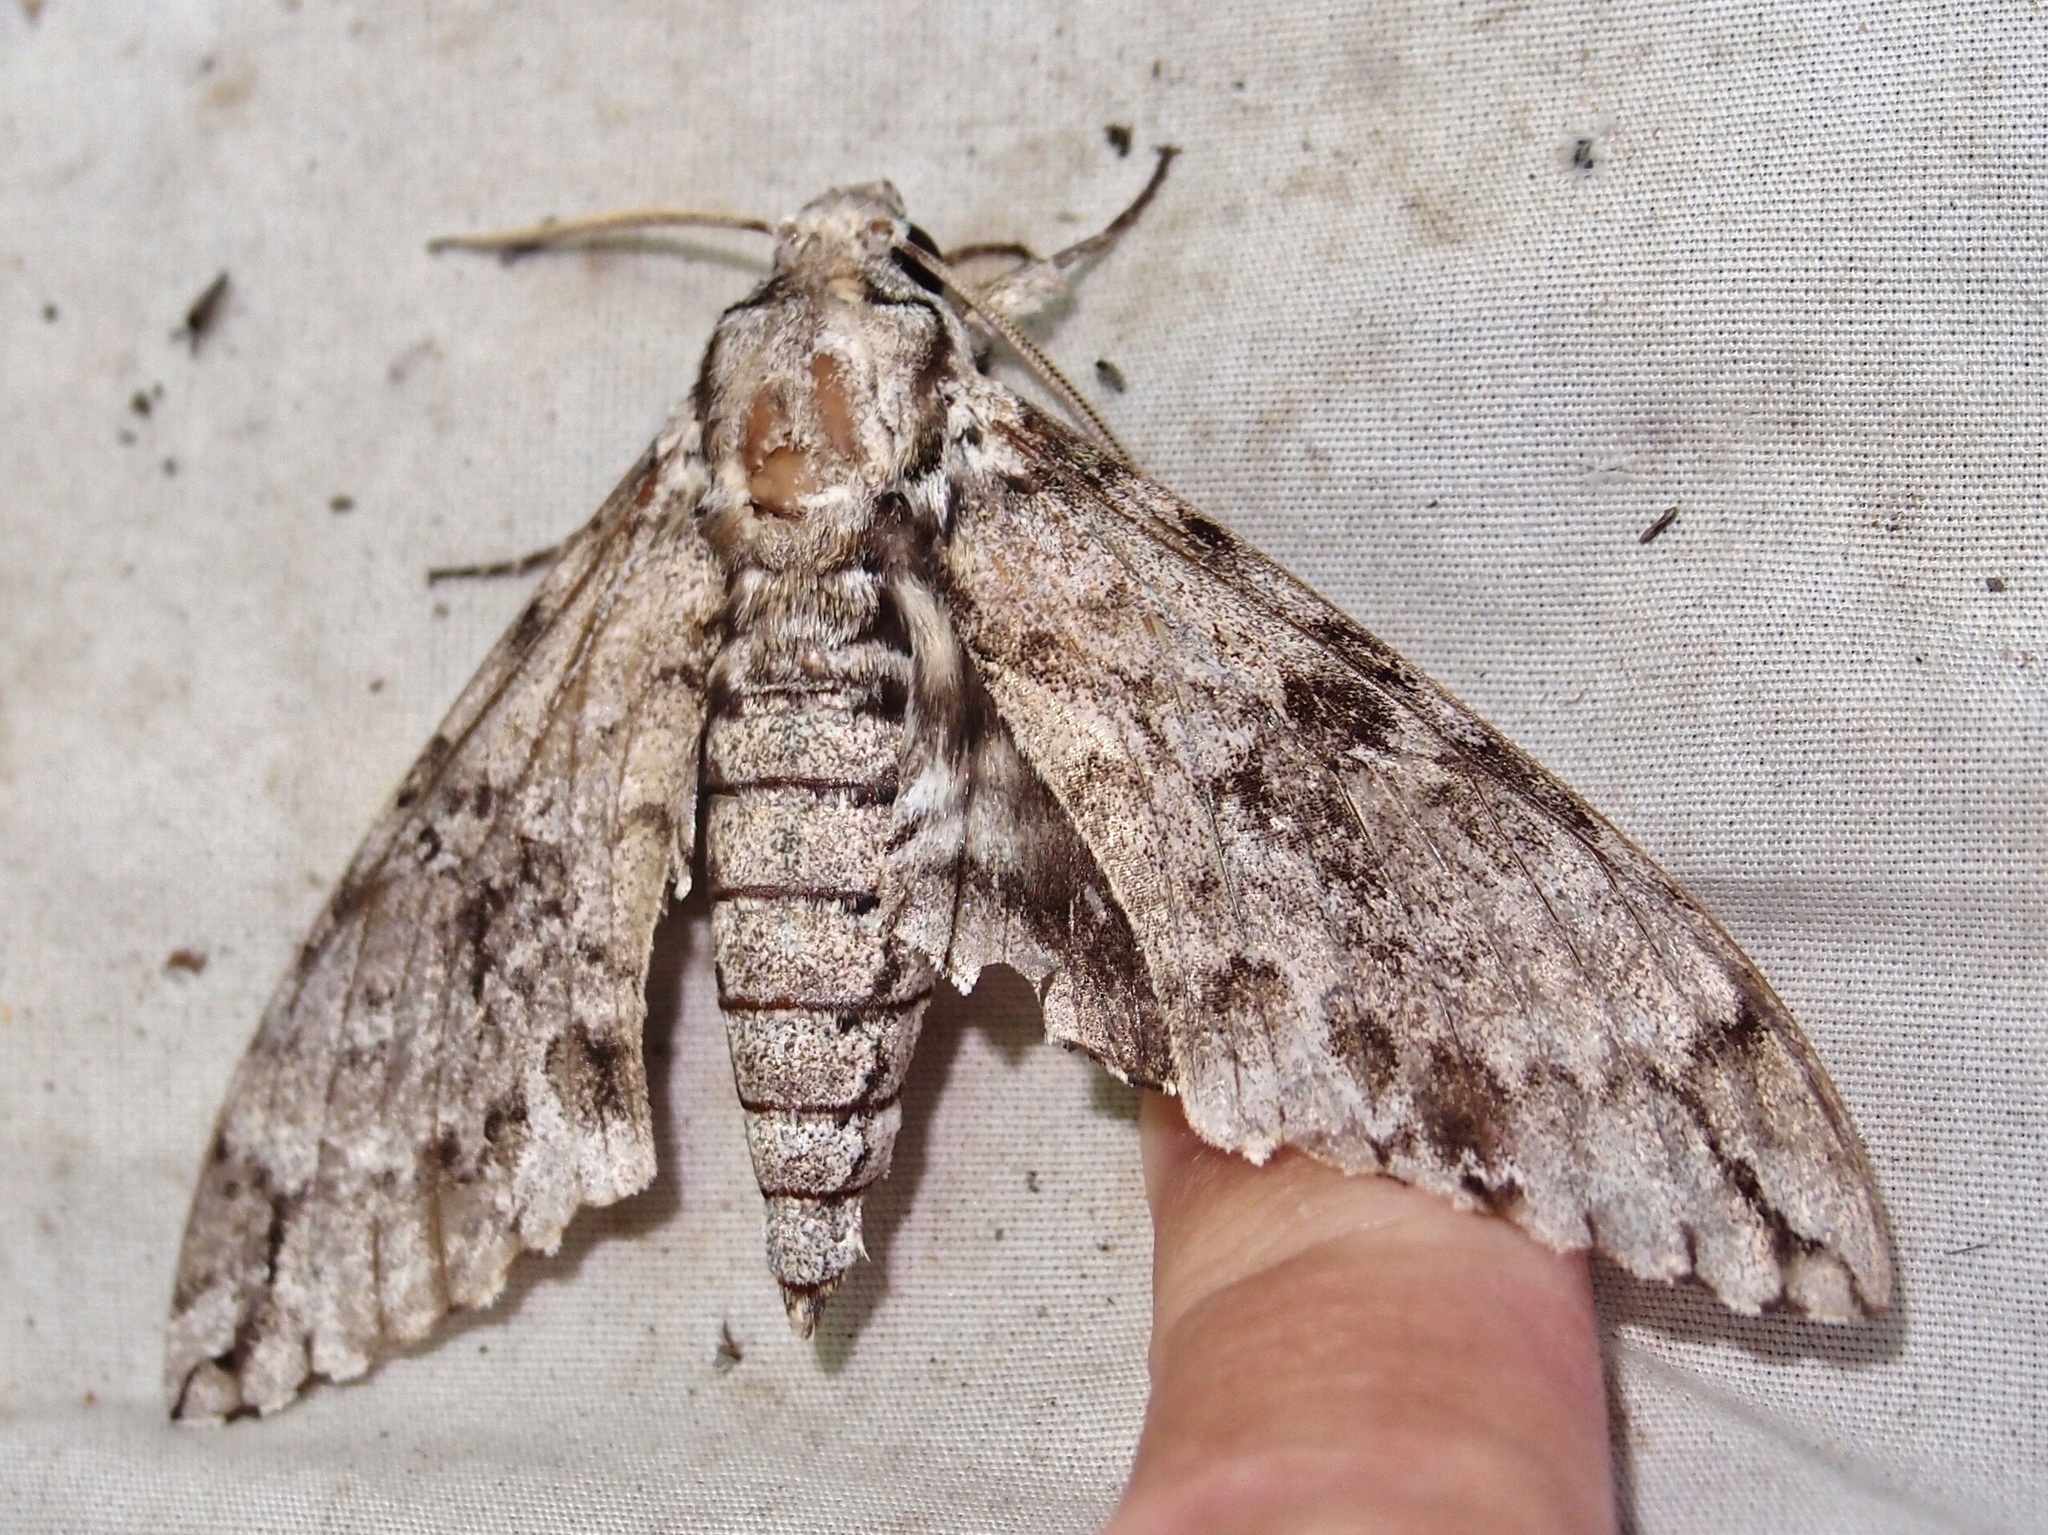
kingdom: Animalia
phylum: Arthropoda
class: Insecta
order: Lepidoptera
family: Sphingidae
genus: Manduca
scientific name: Manduca florestan
